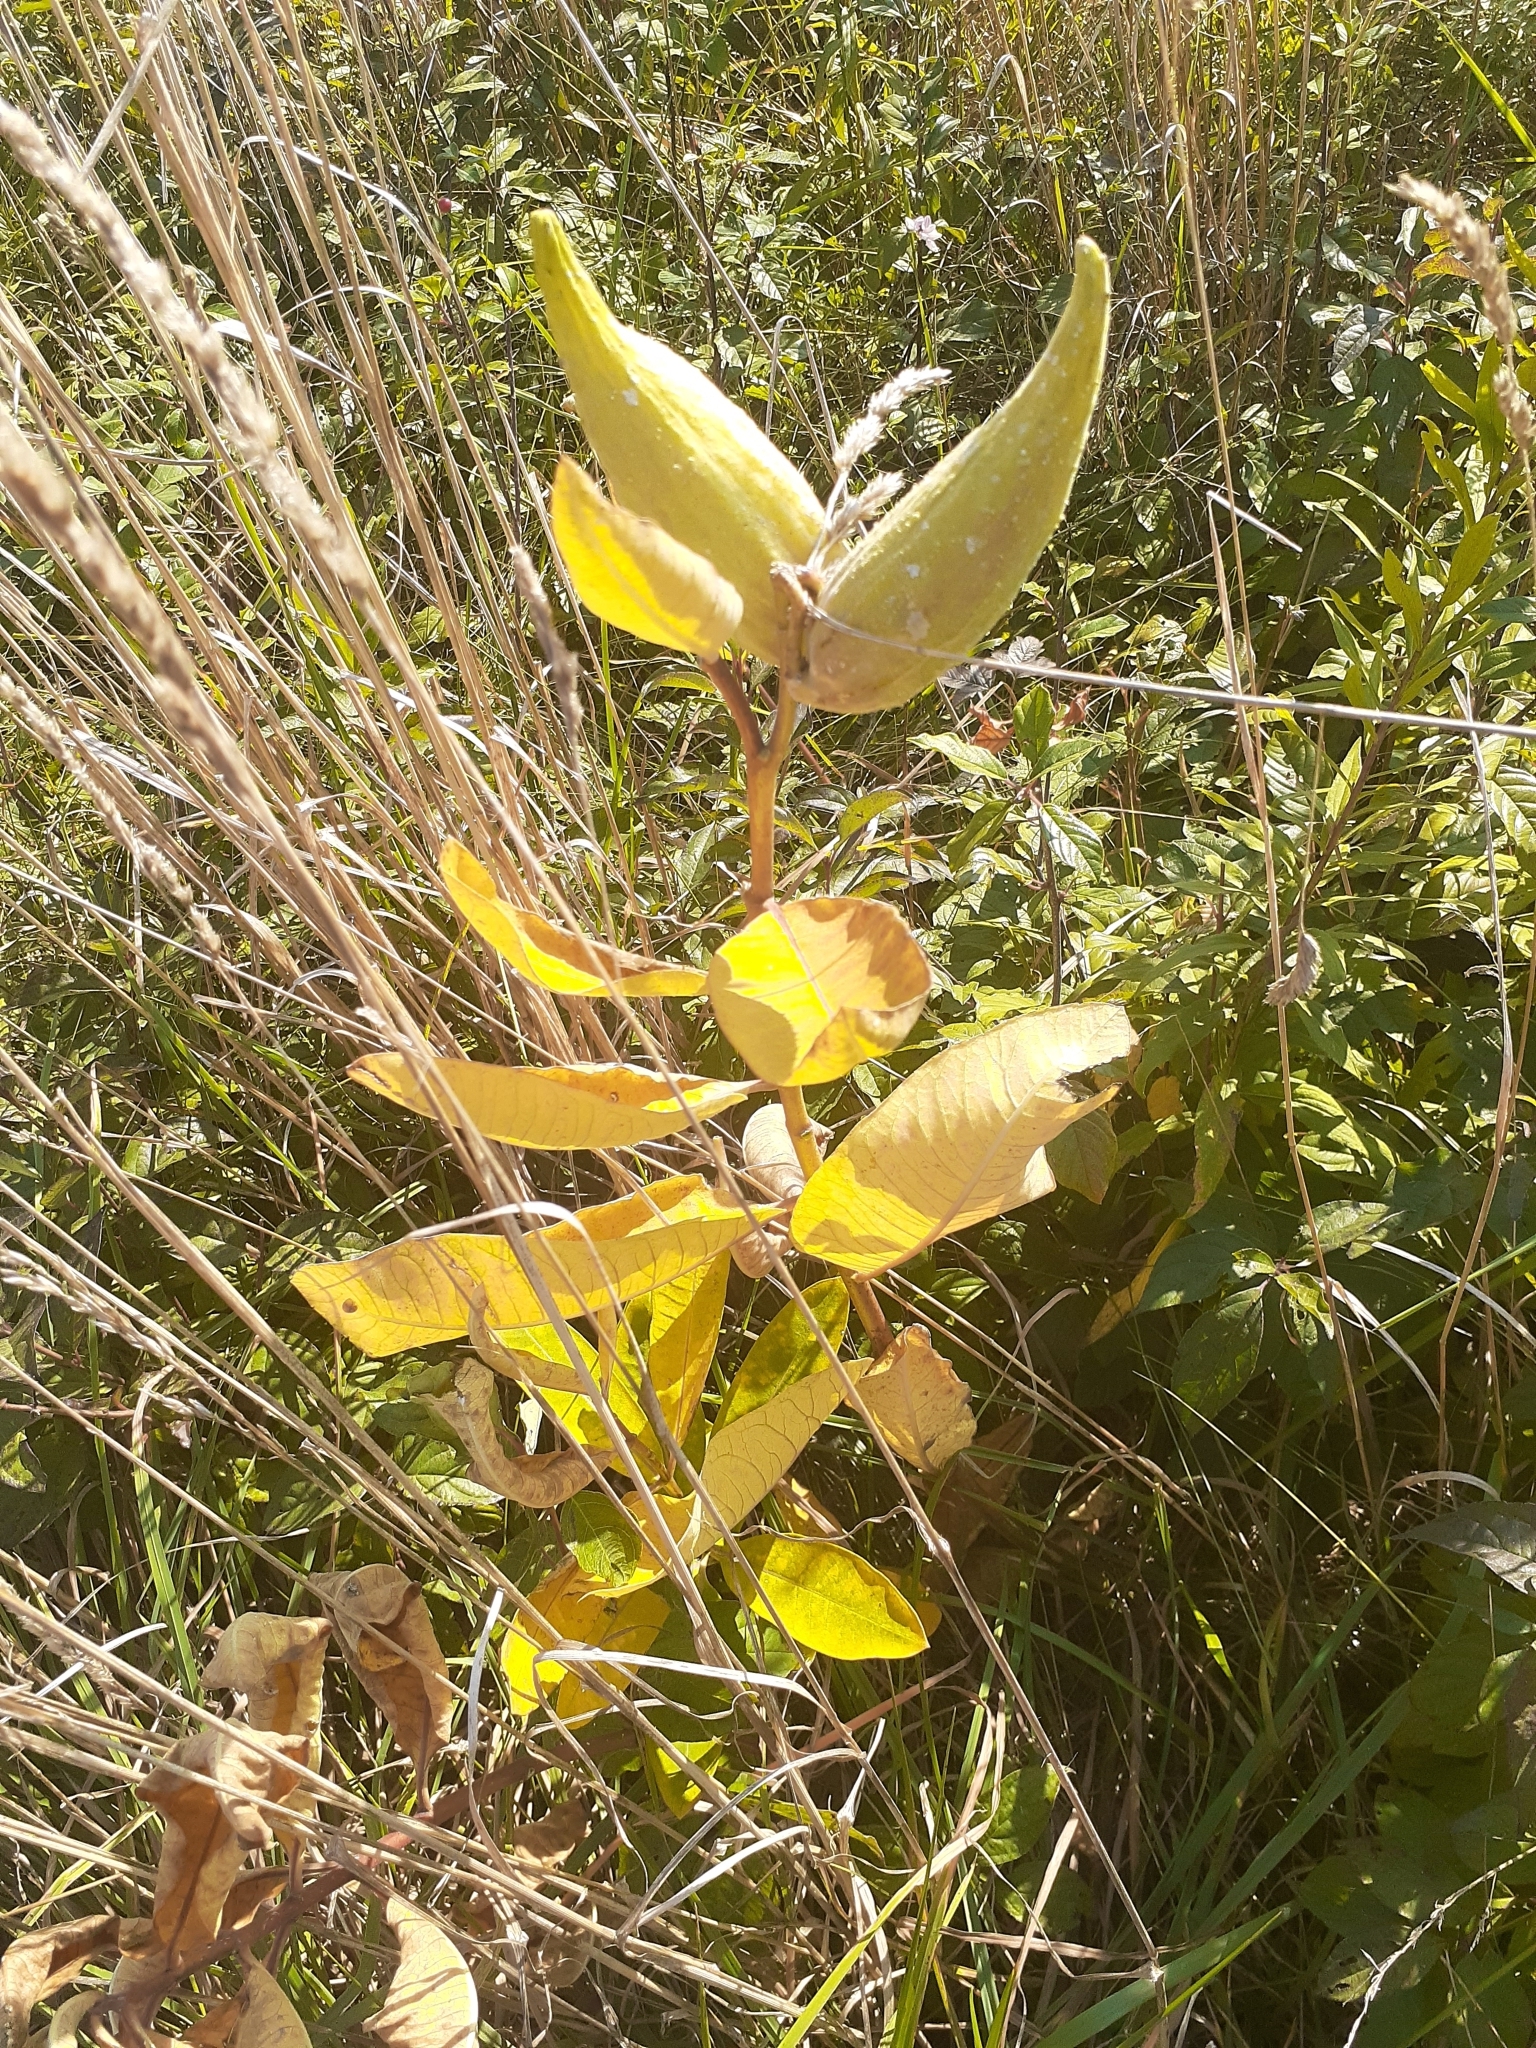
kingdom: Plantae
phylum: Tracheophyta
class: Magnoliopsida
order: Gentianales
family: Apocynaceae
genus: Asclepias
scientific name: Asclepias syriaca
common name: Common milkweed
